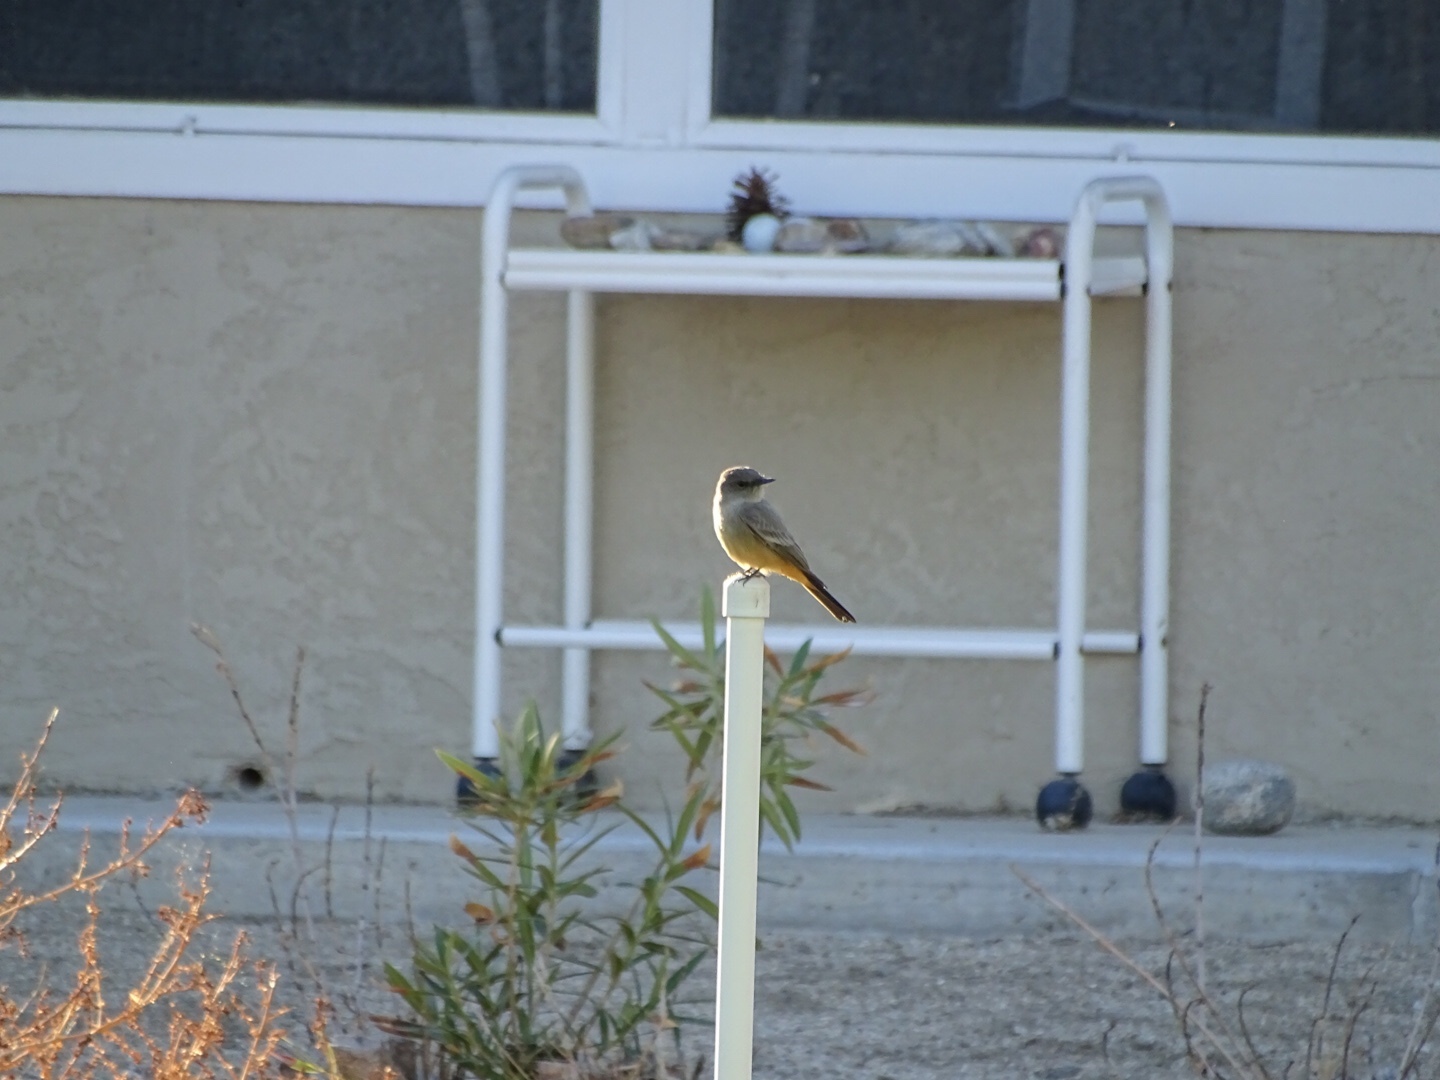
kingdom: Animalia
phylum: Chordata
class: Aves
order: Passeriformes
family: Tyrannidae
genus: Sayornis
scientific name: Sayornis saya
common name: Say's phoebe
